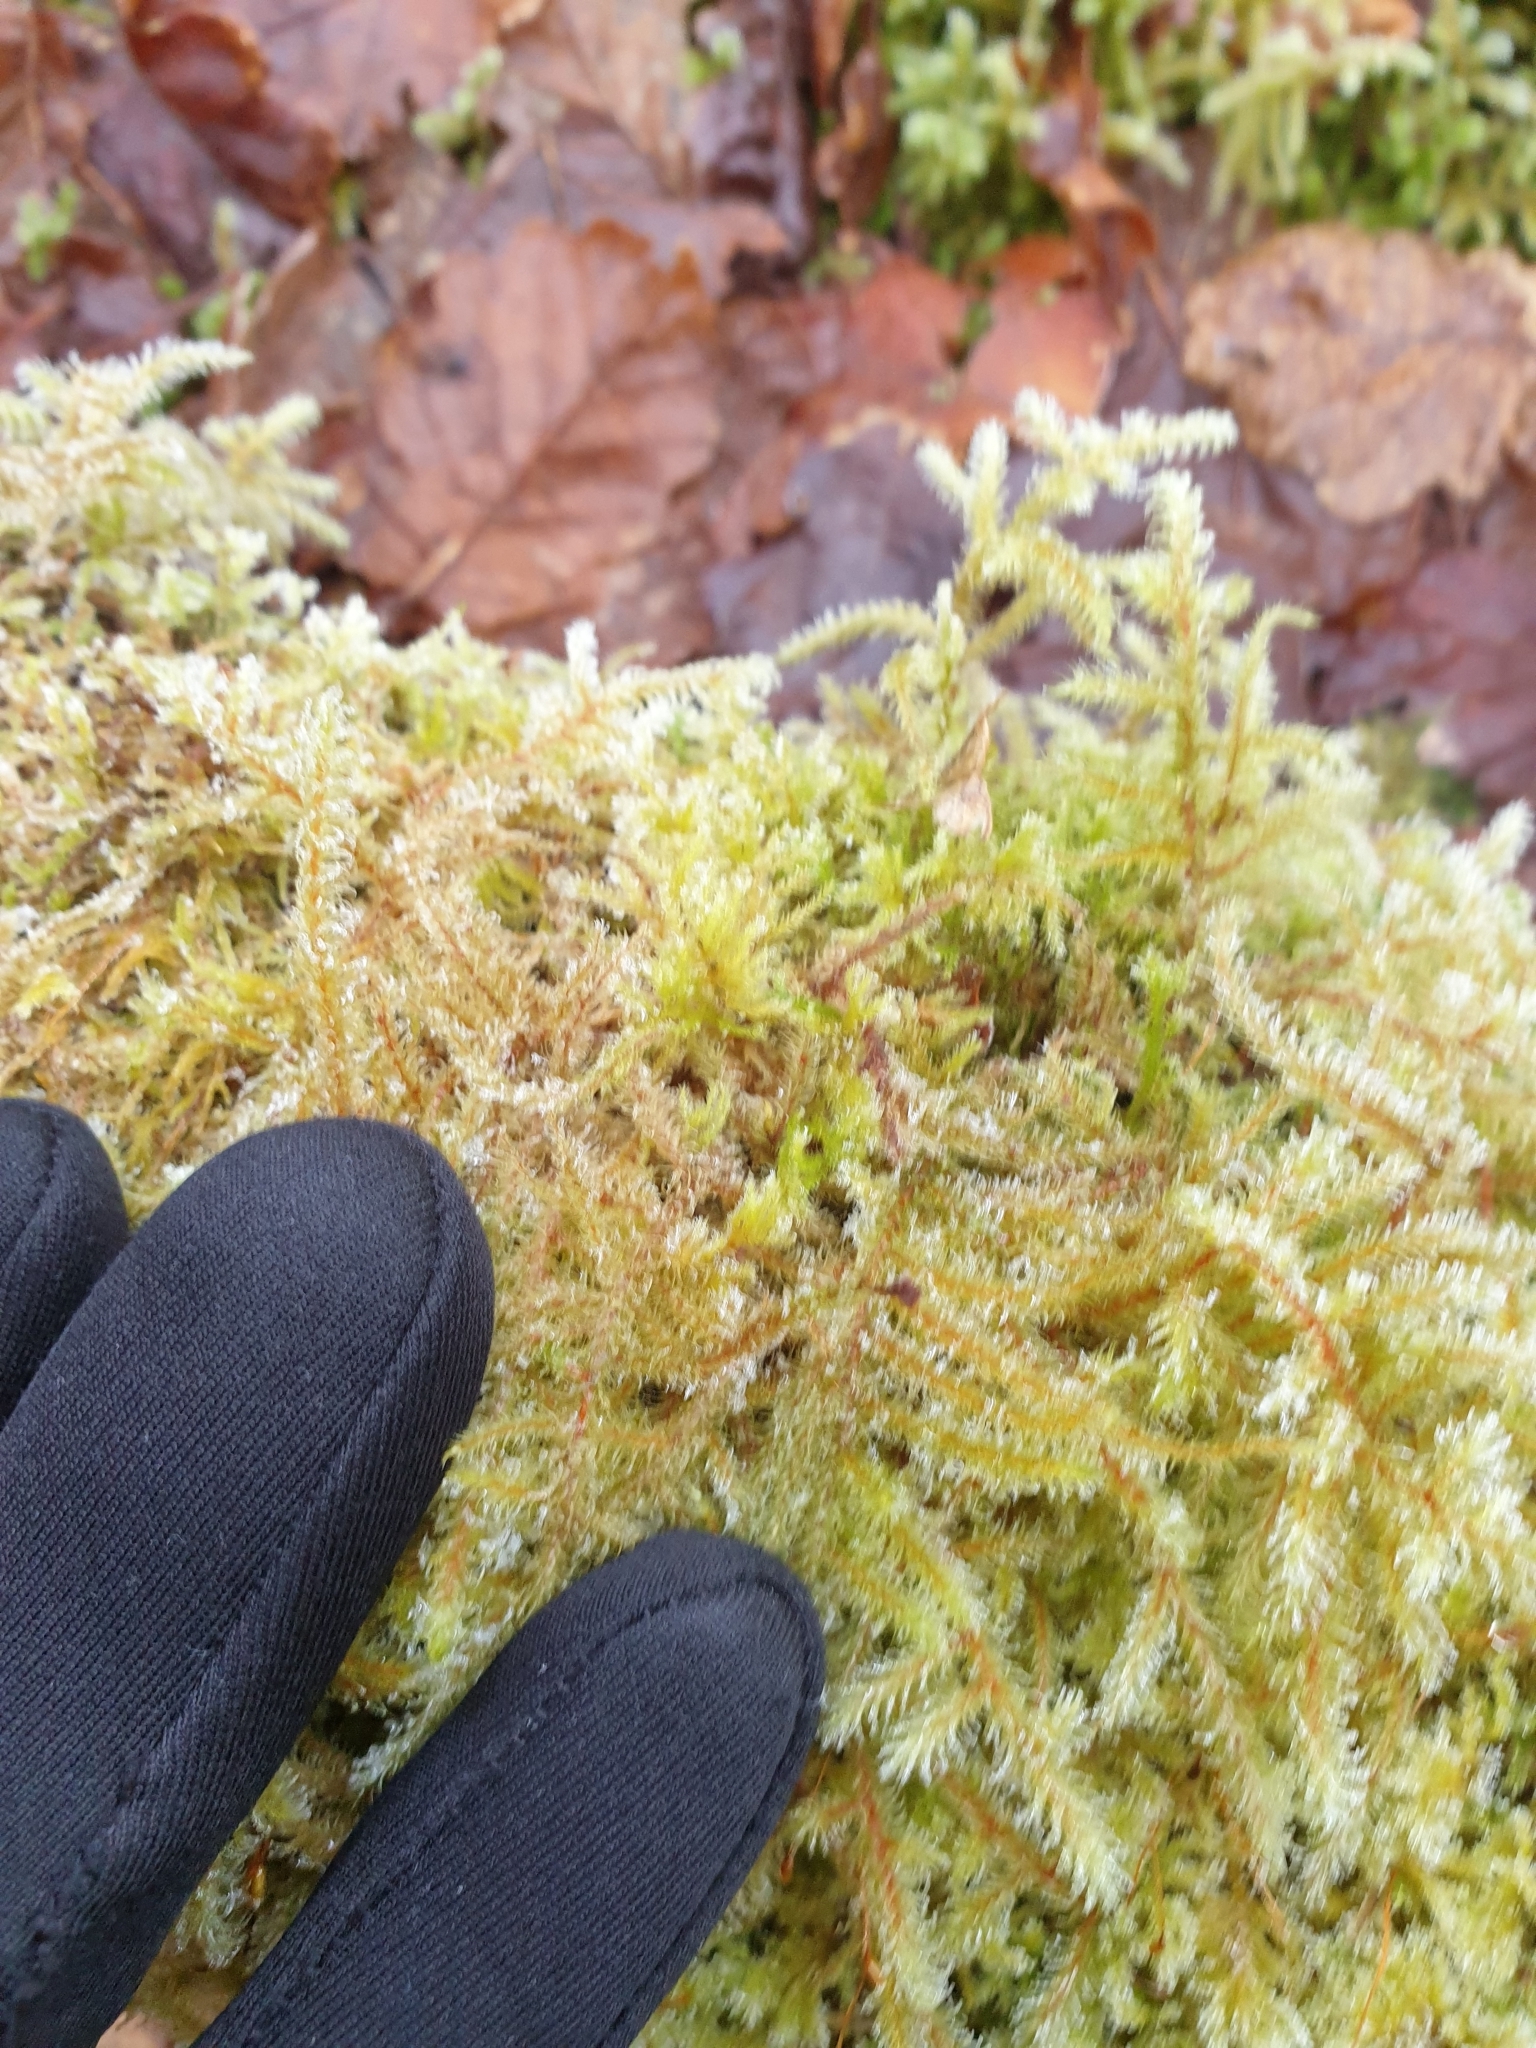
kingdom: Plantae
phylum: Bryophyta
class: Bryopsida
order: Hypnales
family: Hylocomiaceae
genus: Rhytidiadelphus
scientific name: Rhytidiadelphus loreus
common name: Lanky moss
